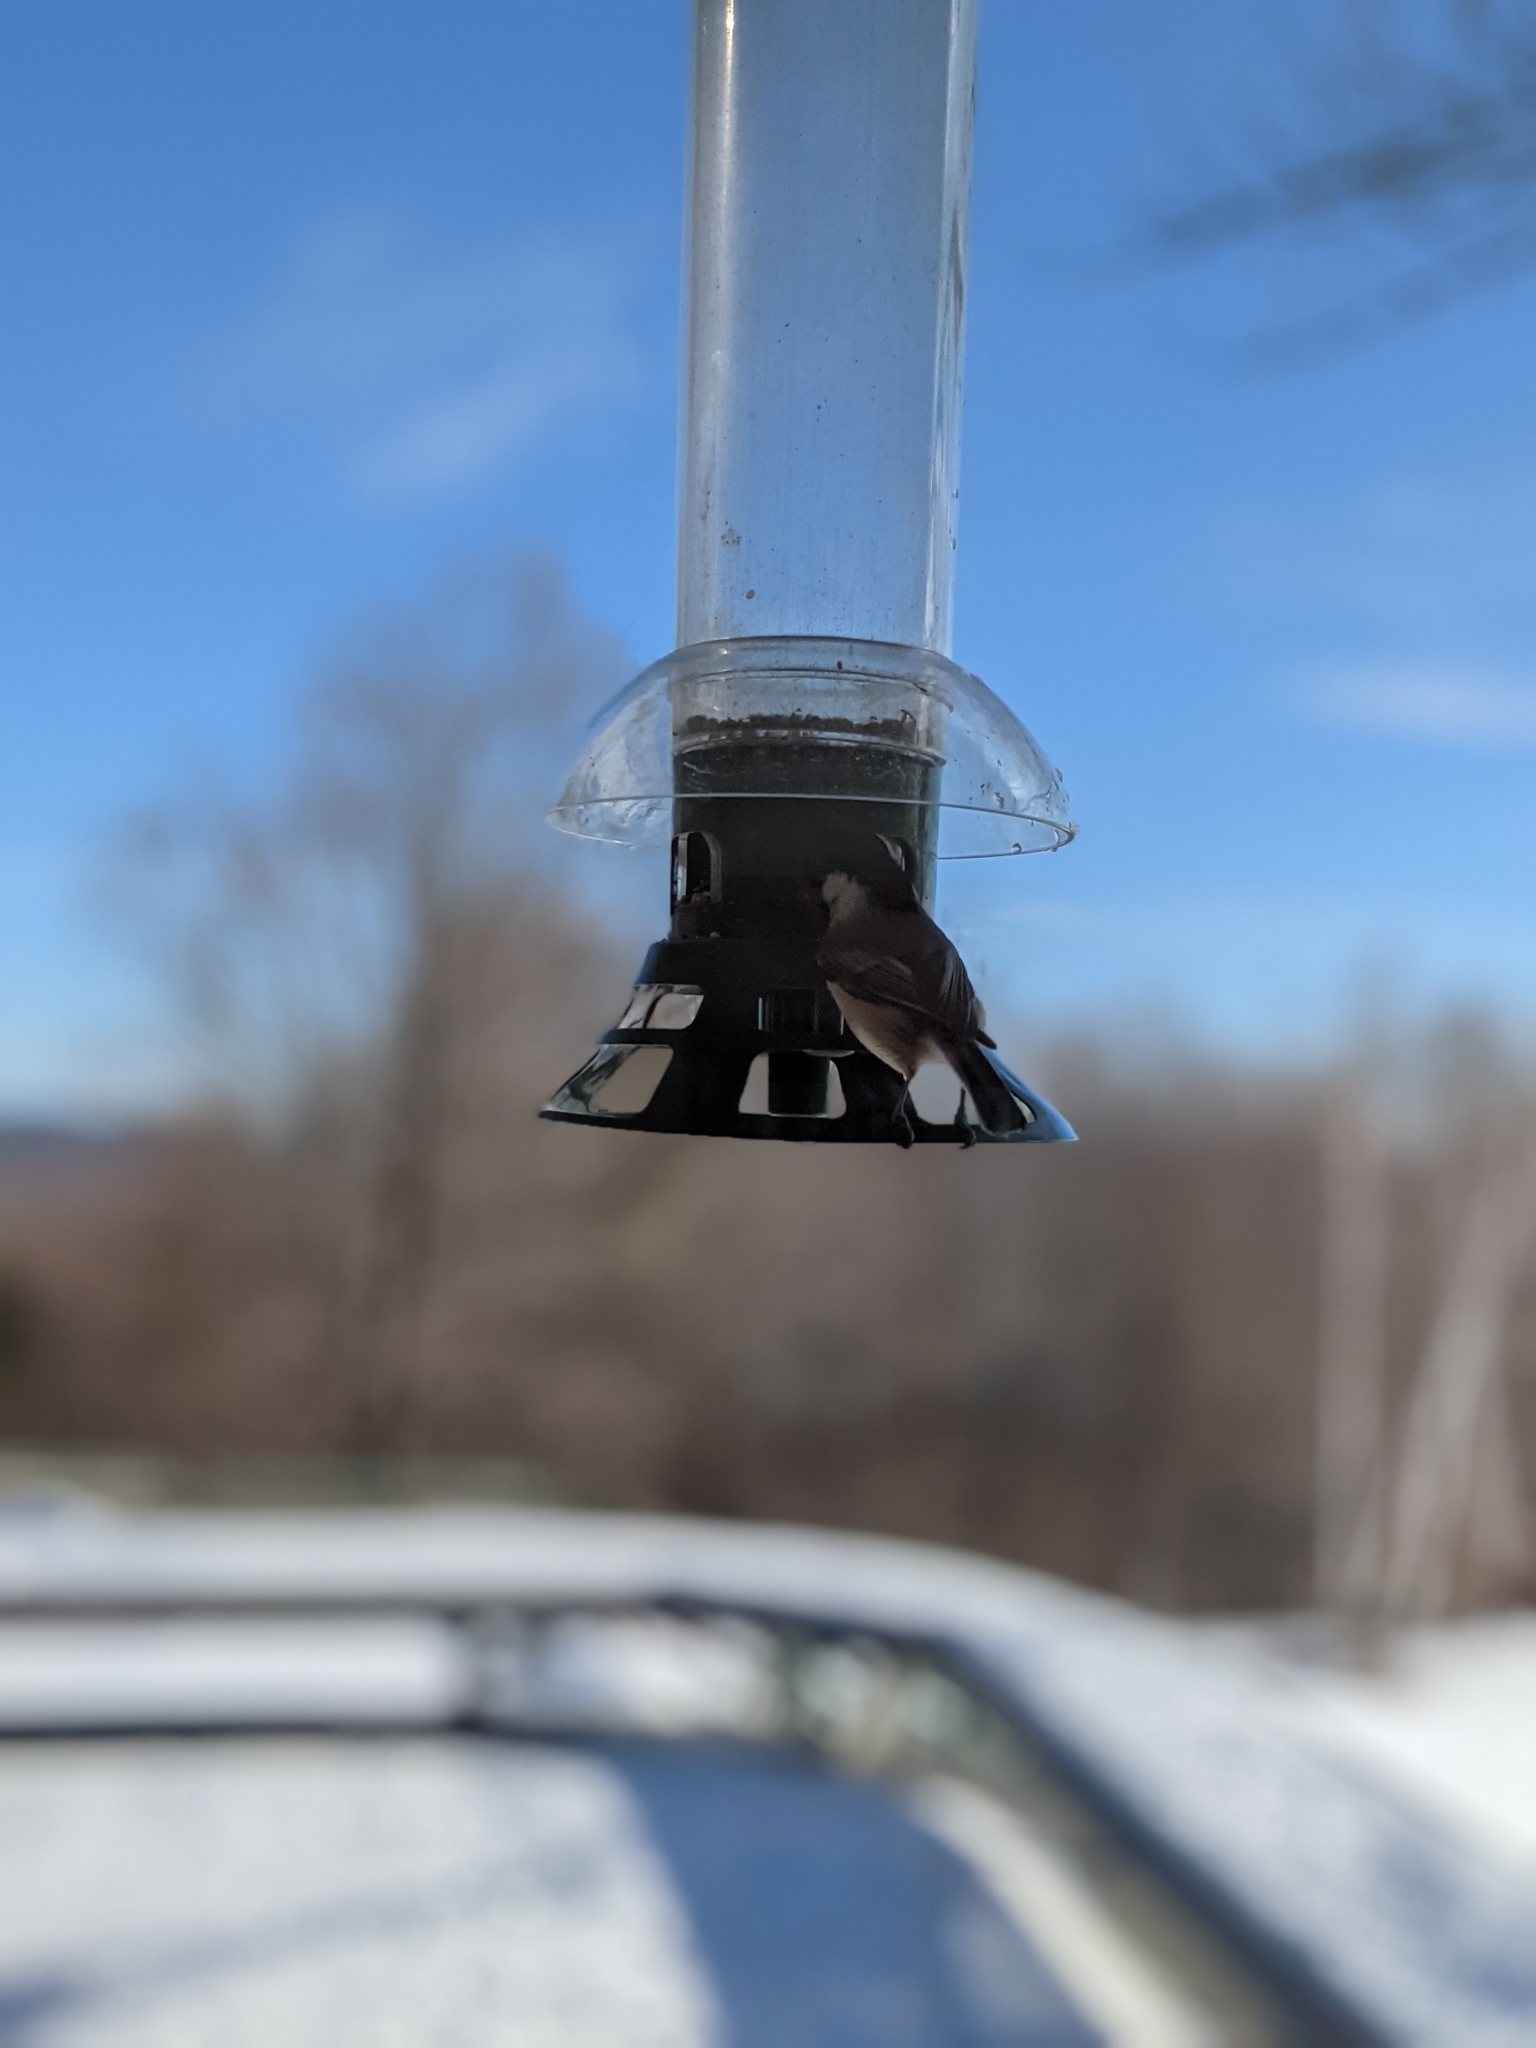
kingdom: Animalia
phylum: Chordata
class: Aves
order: Passeriformes
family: Paridae
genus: Poecile
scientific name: Poecile atricapillus
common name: Black-capped chickadee
